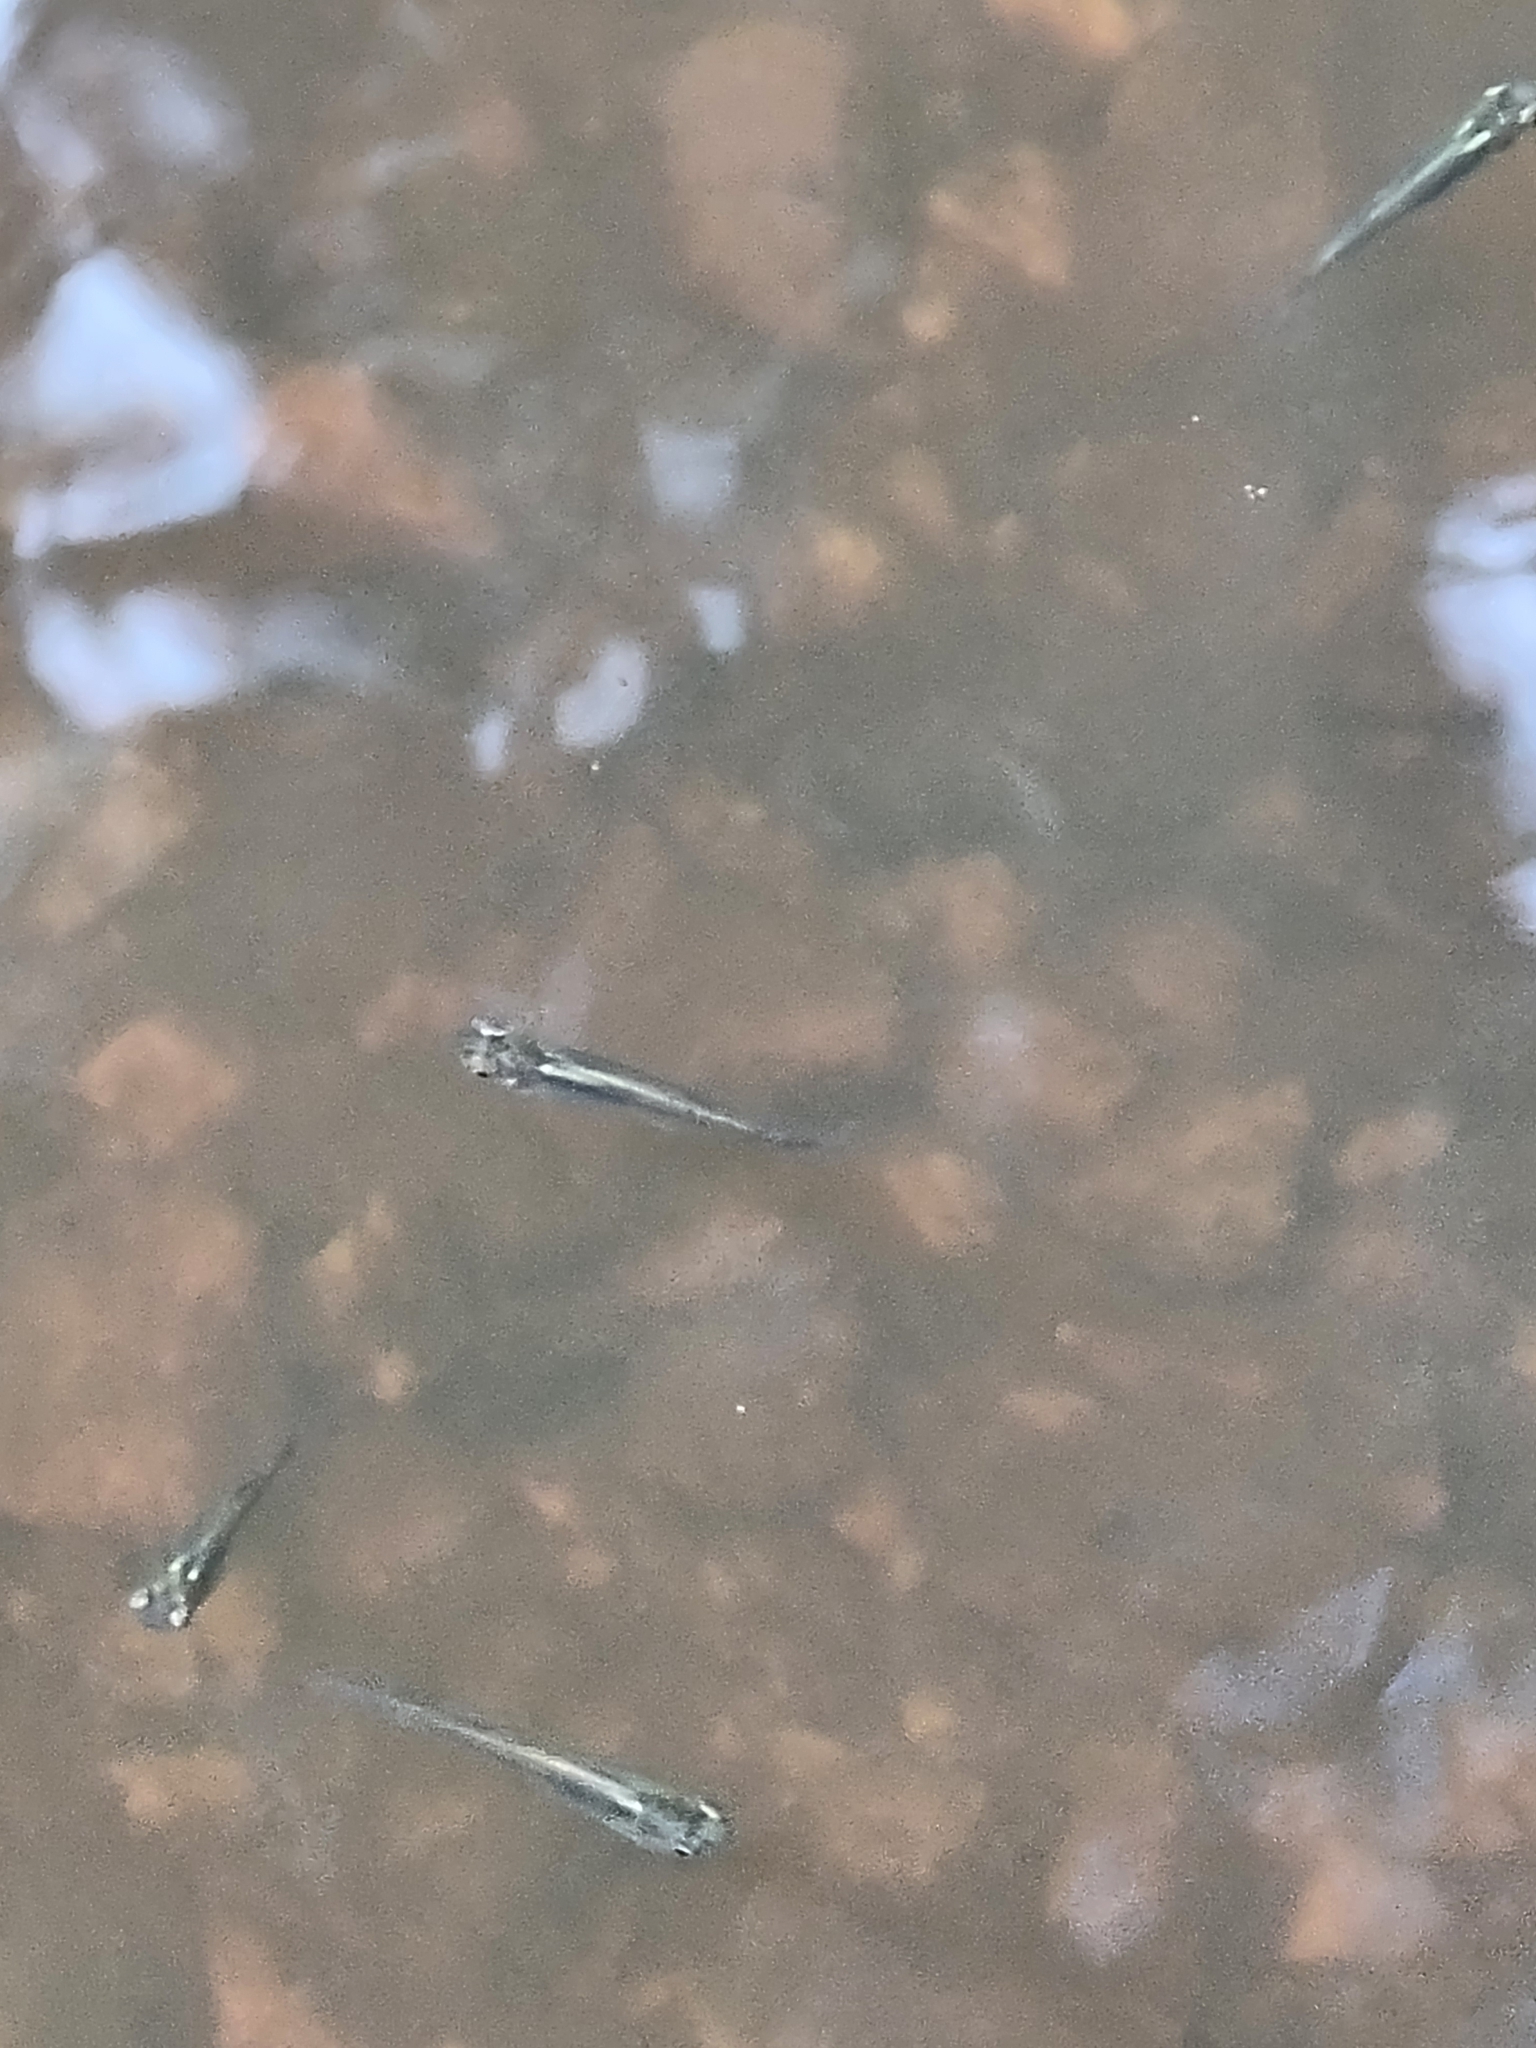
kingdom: Animalia
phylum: Chordata
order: Cyprinodontiformes
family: Poeciliidae
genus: Gambusia
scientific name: Gambusia holbrooki
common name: Eastern mosquitofish
